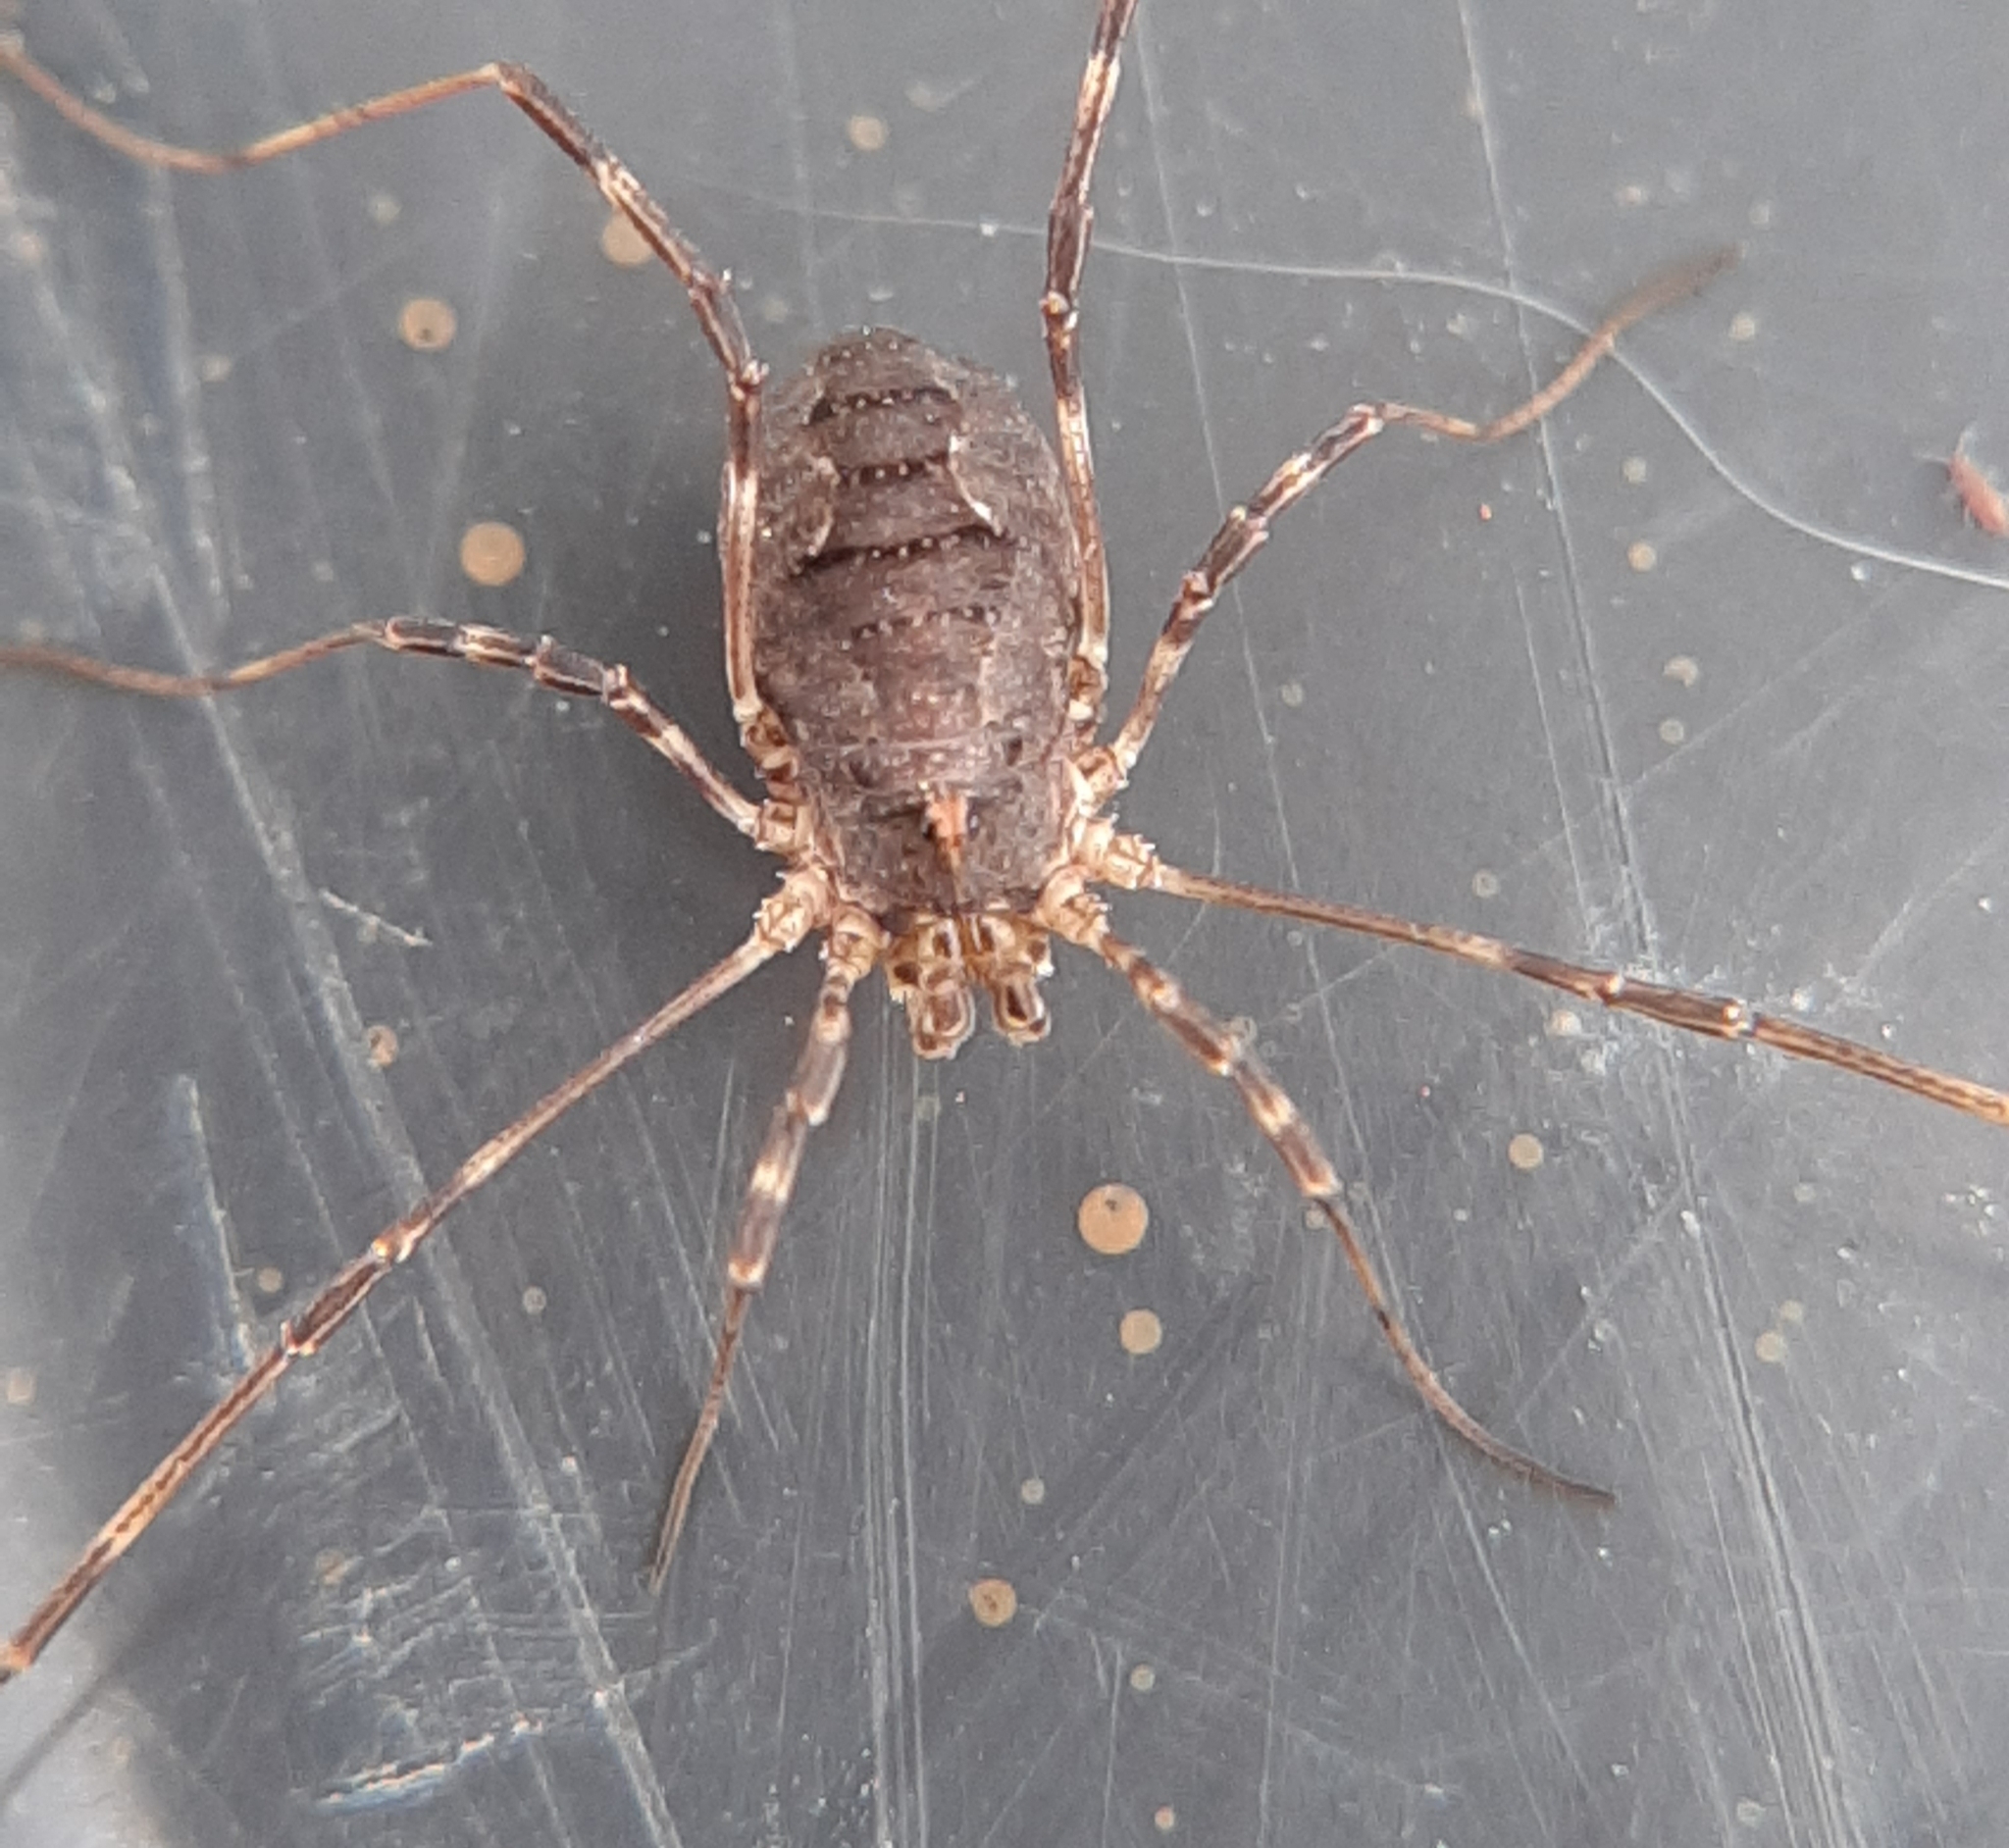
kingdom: Animalia
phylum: Arthropoda
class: Arachnida
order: Opiliones
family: Phalangiidae
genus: Odiellus
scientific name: Odiellus pictus
